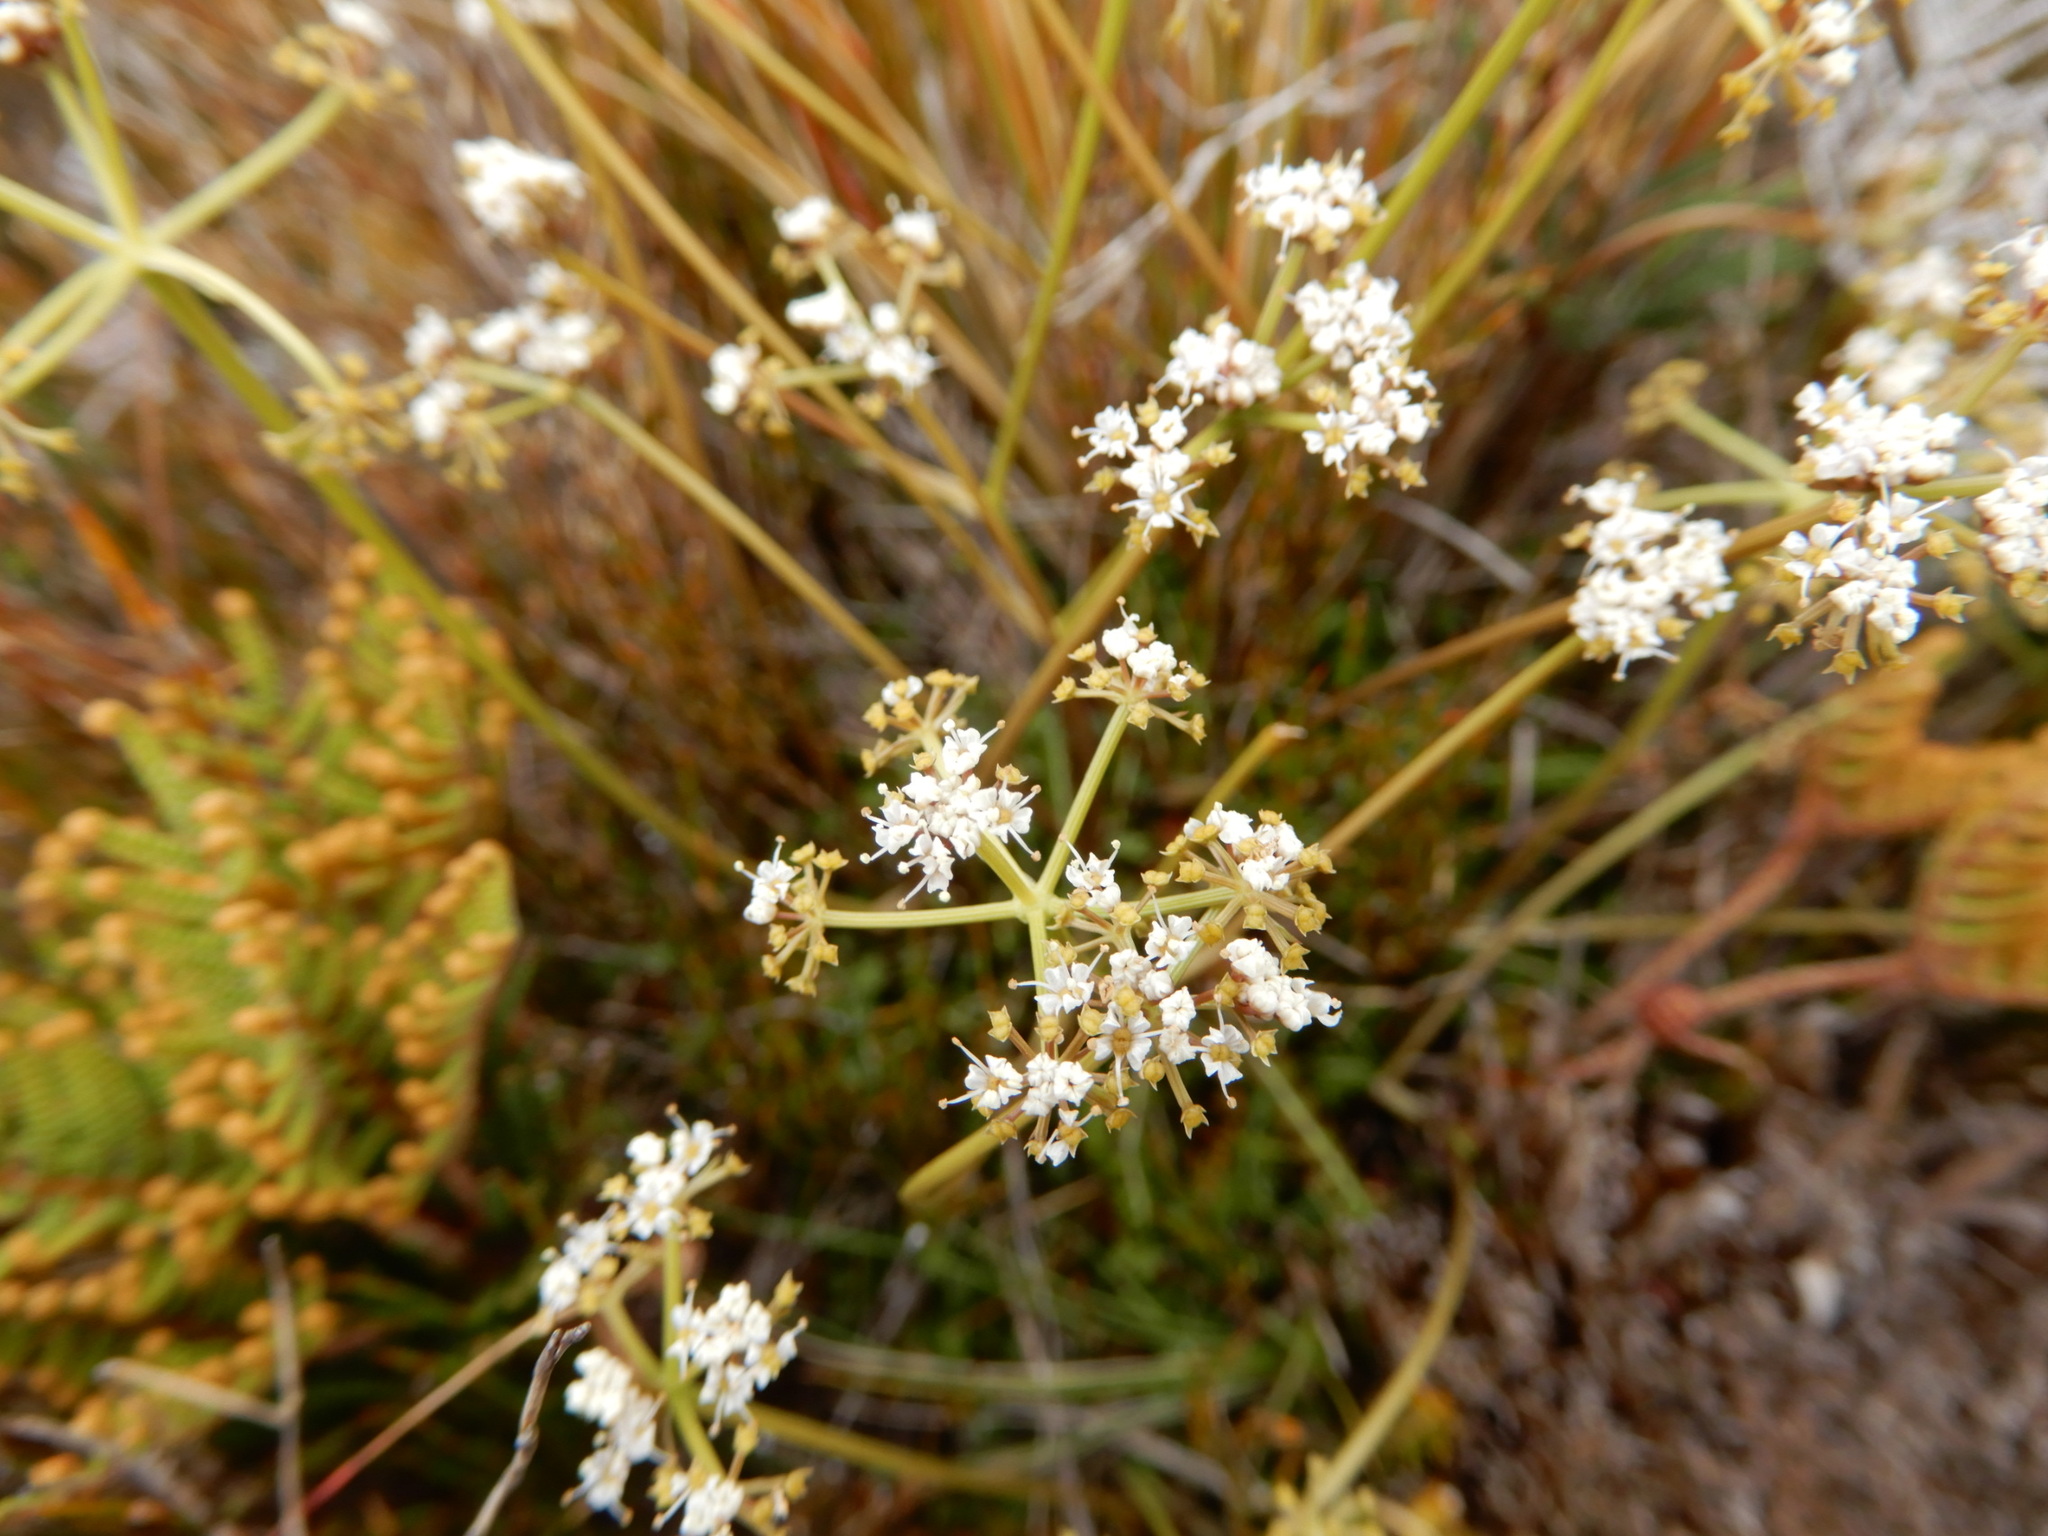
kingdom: Plantae
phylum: Tracheophyta
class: Magnoliopsida
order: Apiales
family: Apiaceae
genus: Anisotome
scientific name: Anisotome aromatica
